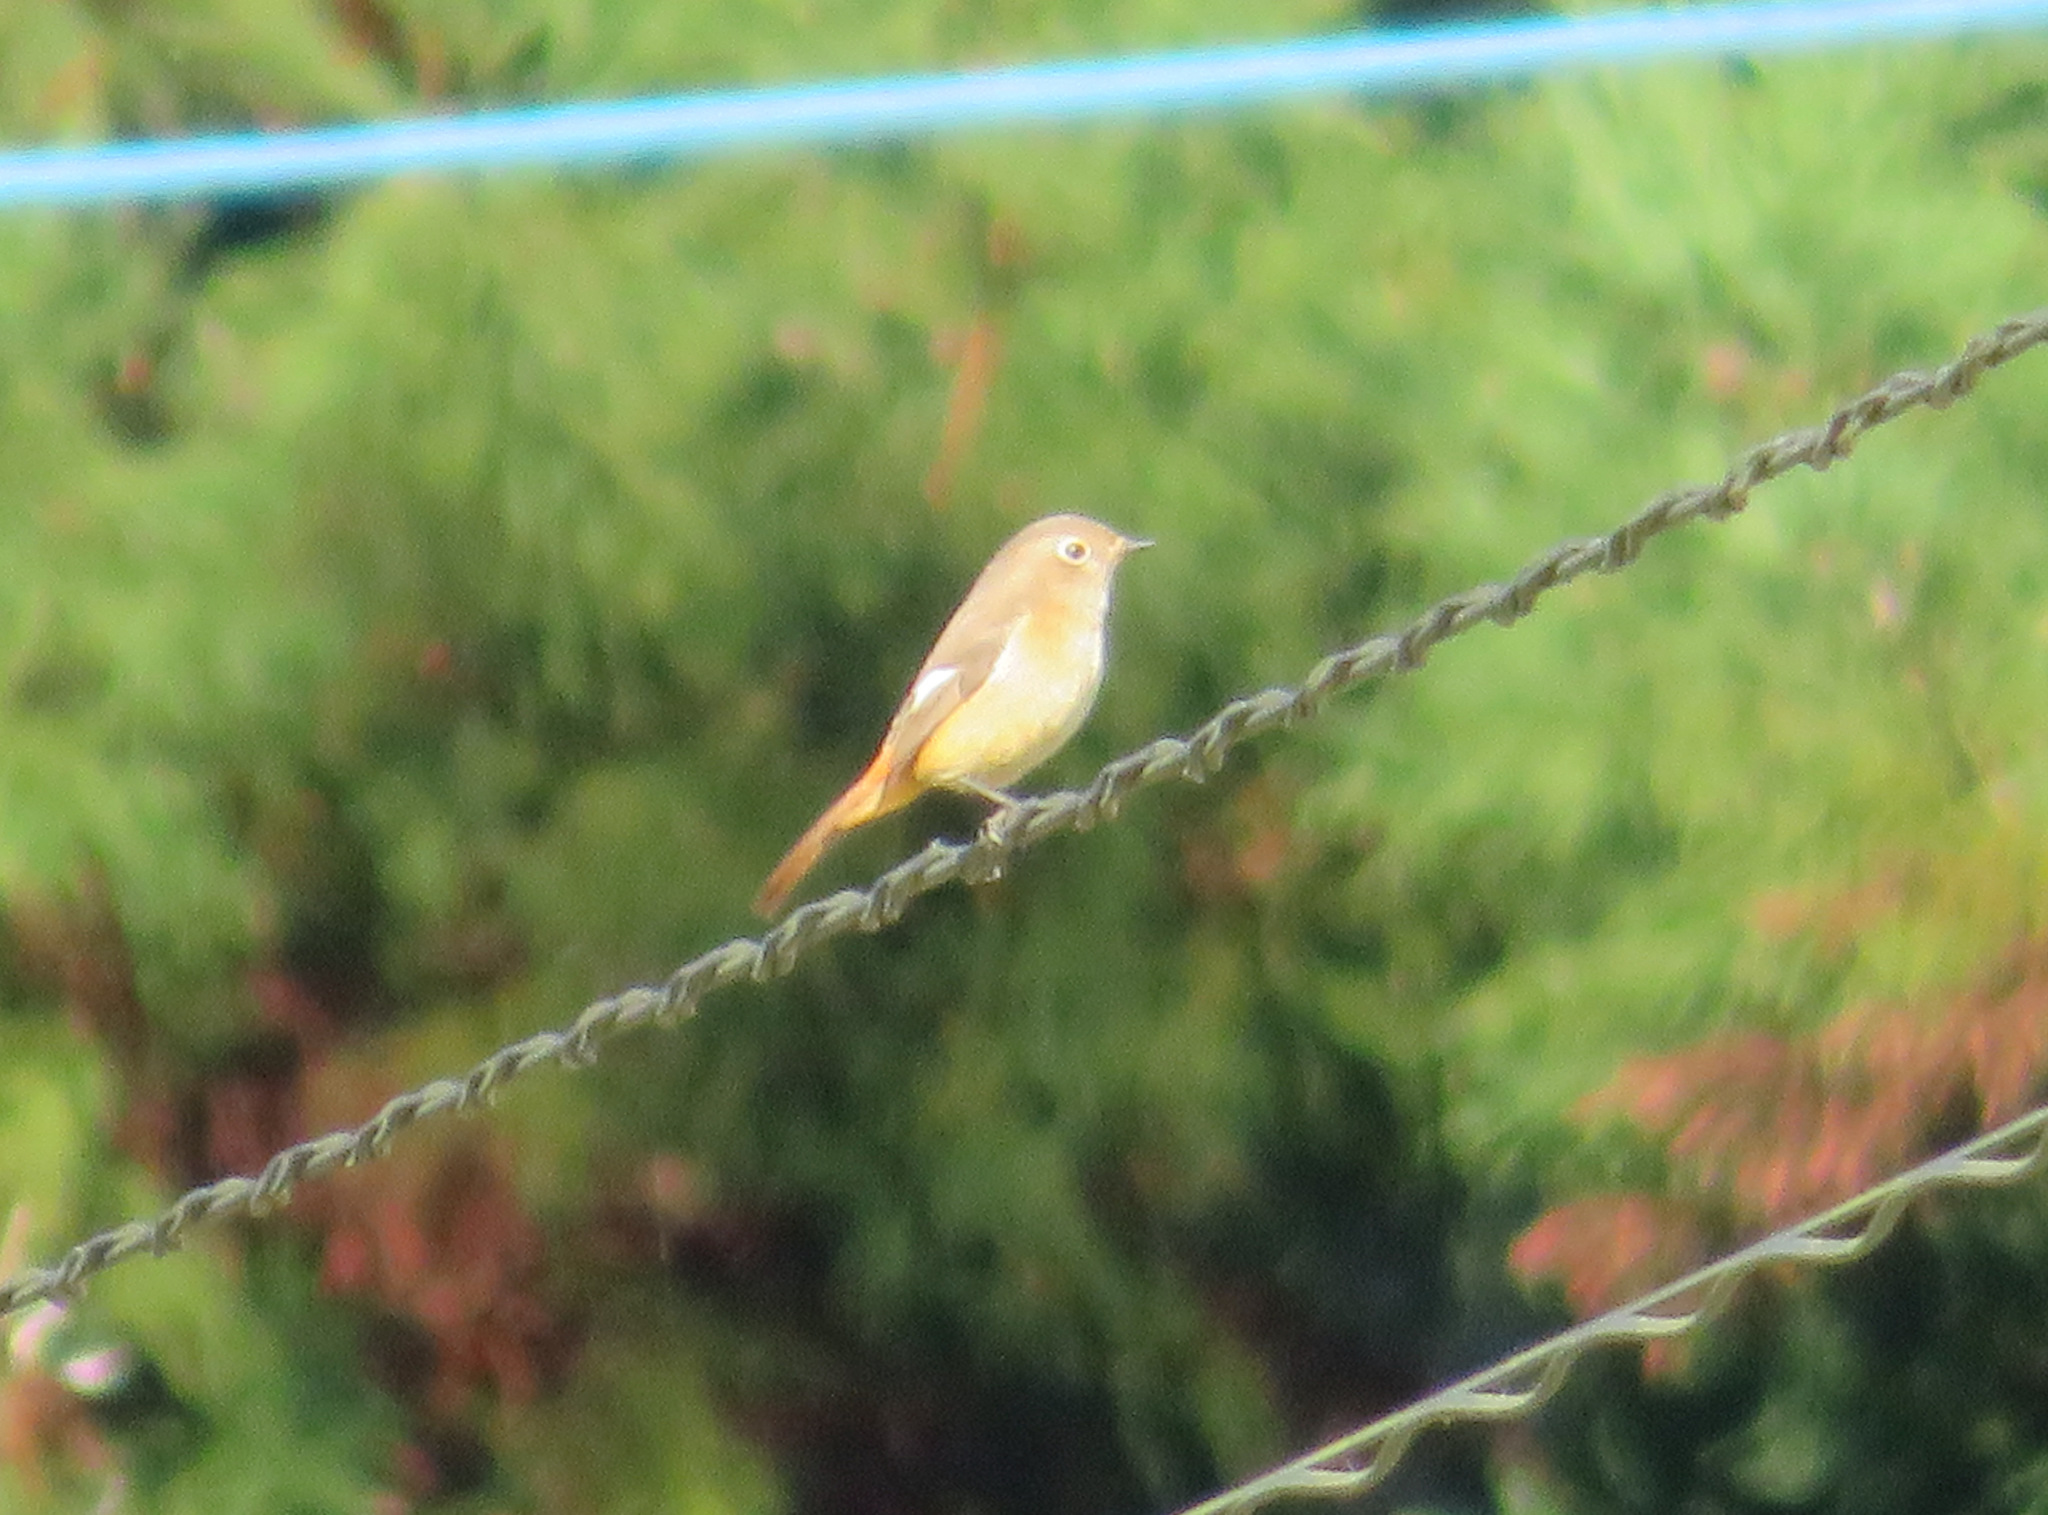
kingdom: Animalia
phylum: Chordata
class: Aves
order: Passeriformes
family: Muscicapidae
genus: Phoenicurus
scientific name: Phoenicurus auroreus
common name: Daurian redstart
